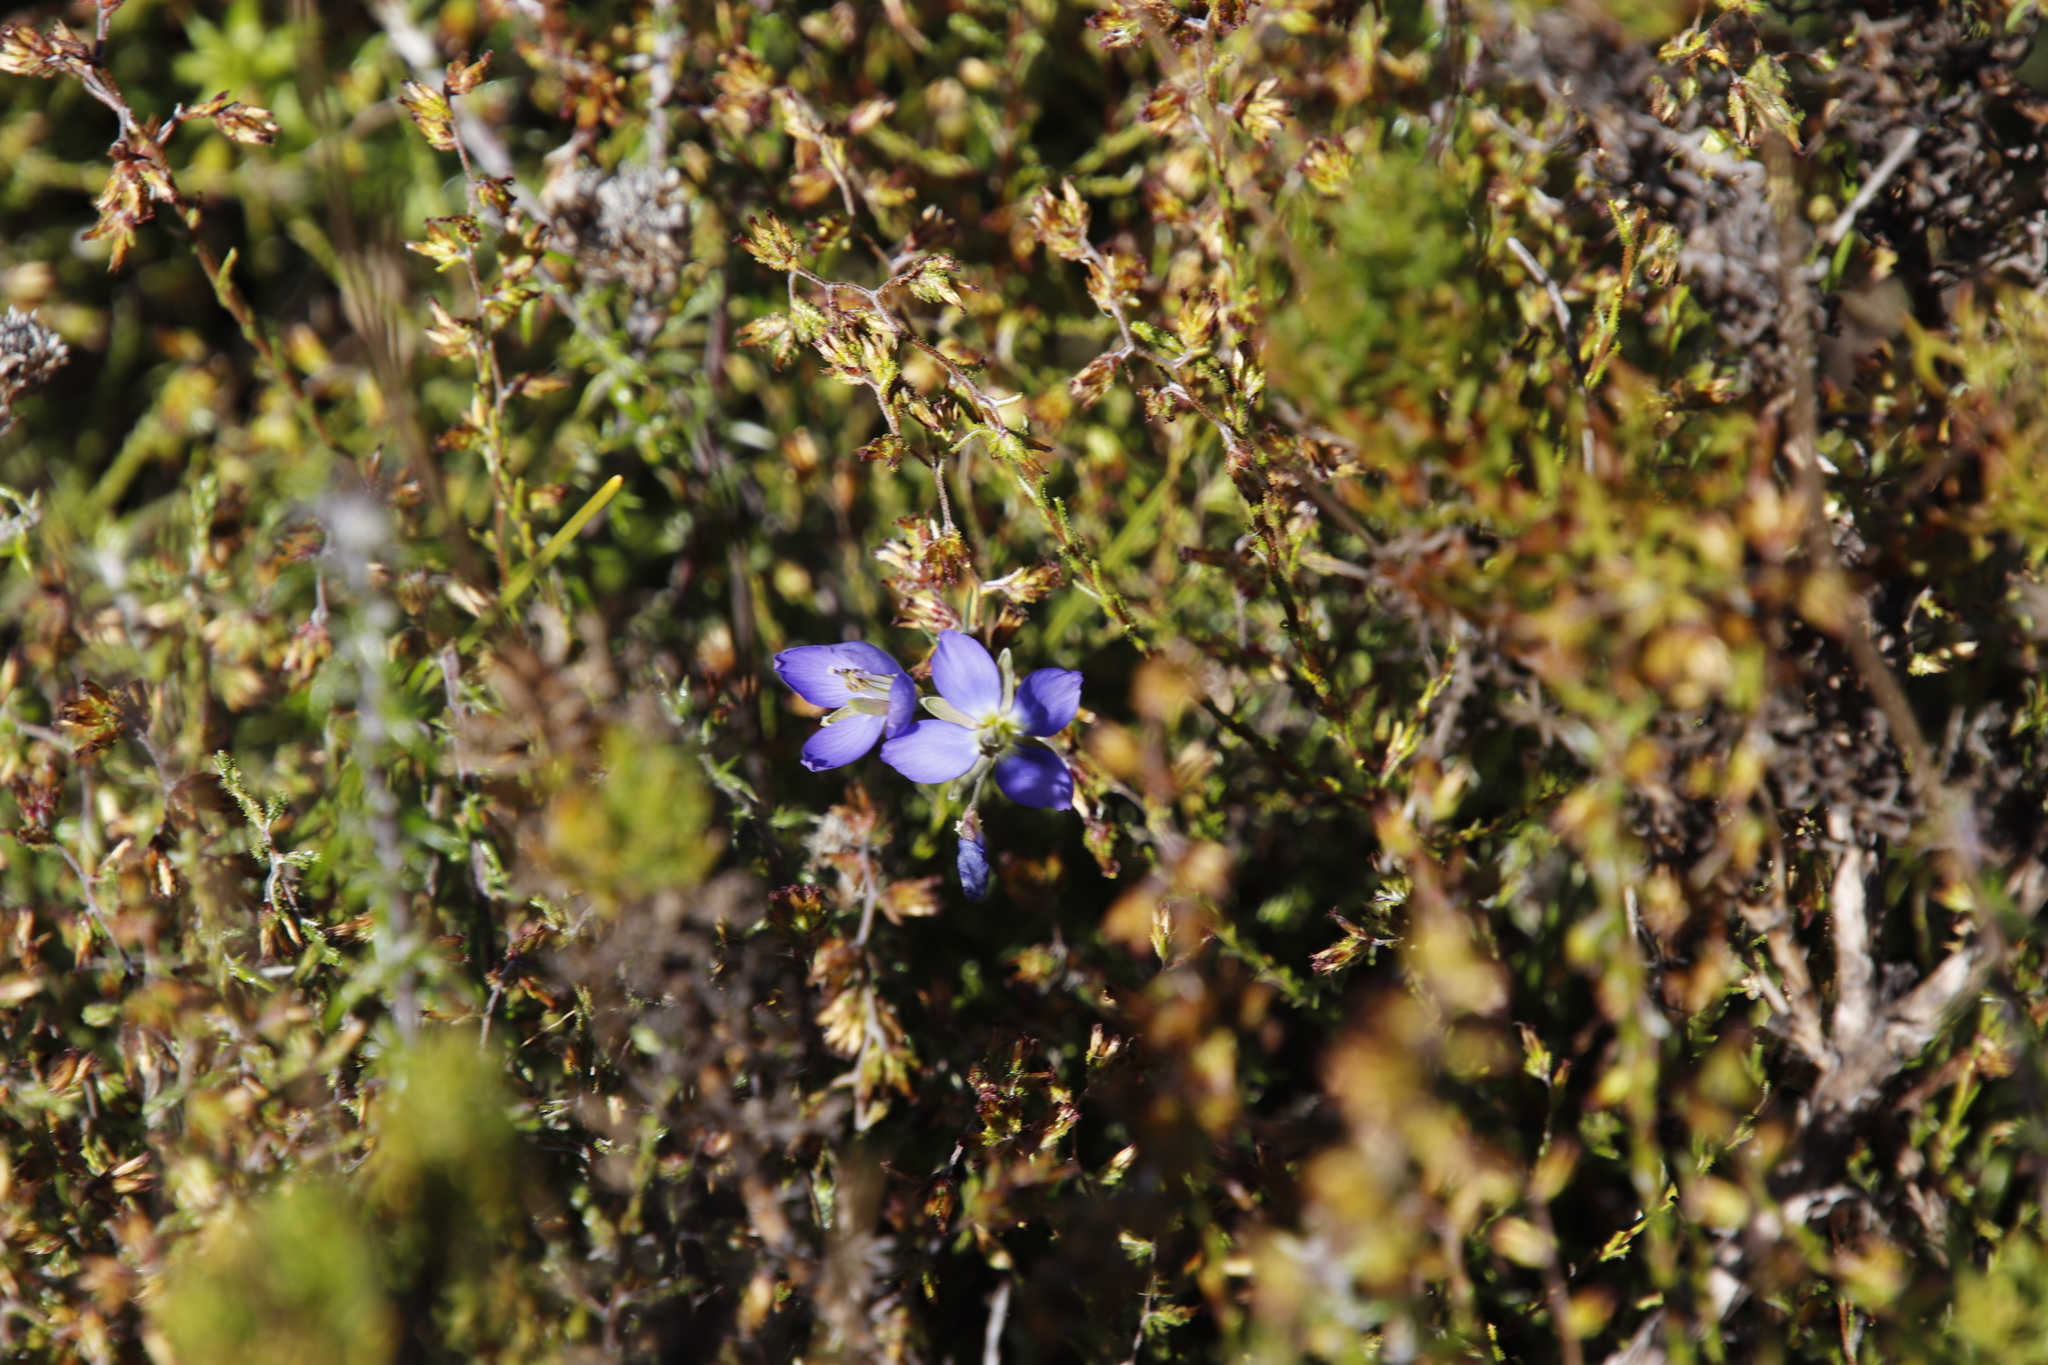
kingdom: Plantae
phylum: Tracheophyta
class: Magnoliopsida
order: Brassicales
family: Brassicaceae
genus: Heliophila
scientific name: Heliophila linearis
